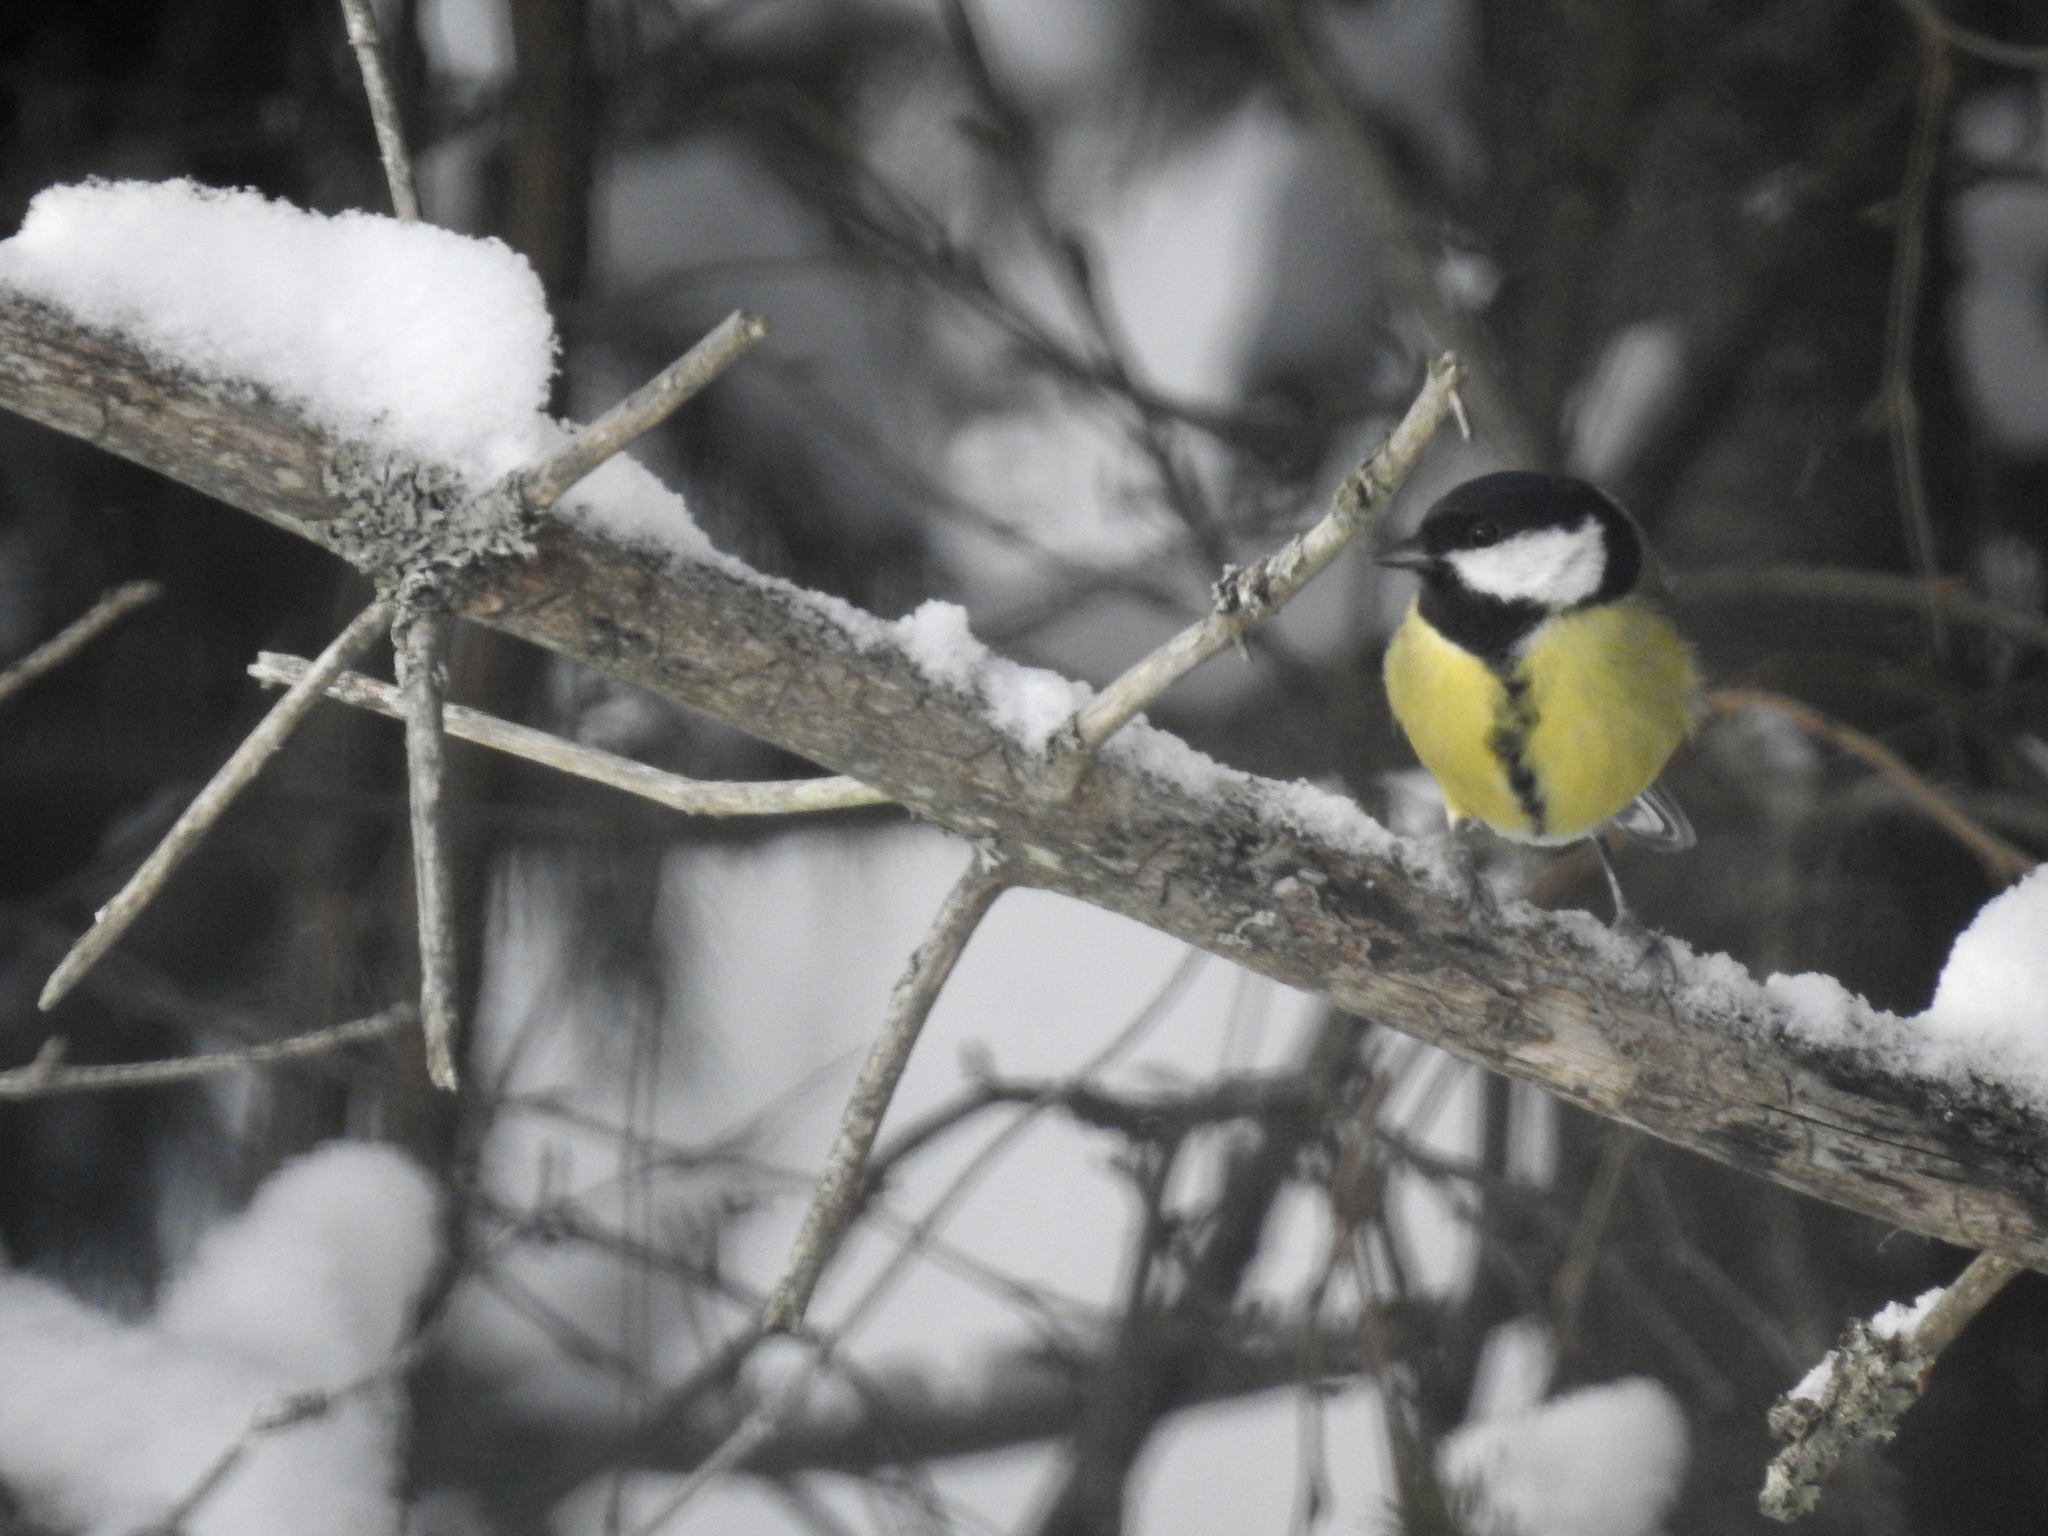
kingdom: Animalia
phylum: Chordata
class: Aves
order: Passeriformes
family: Paridae
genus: Parus
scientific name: Parus major
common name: Great tit
